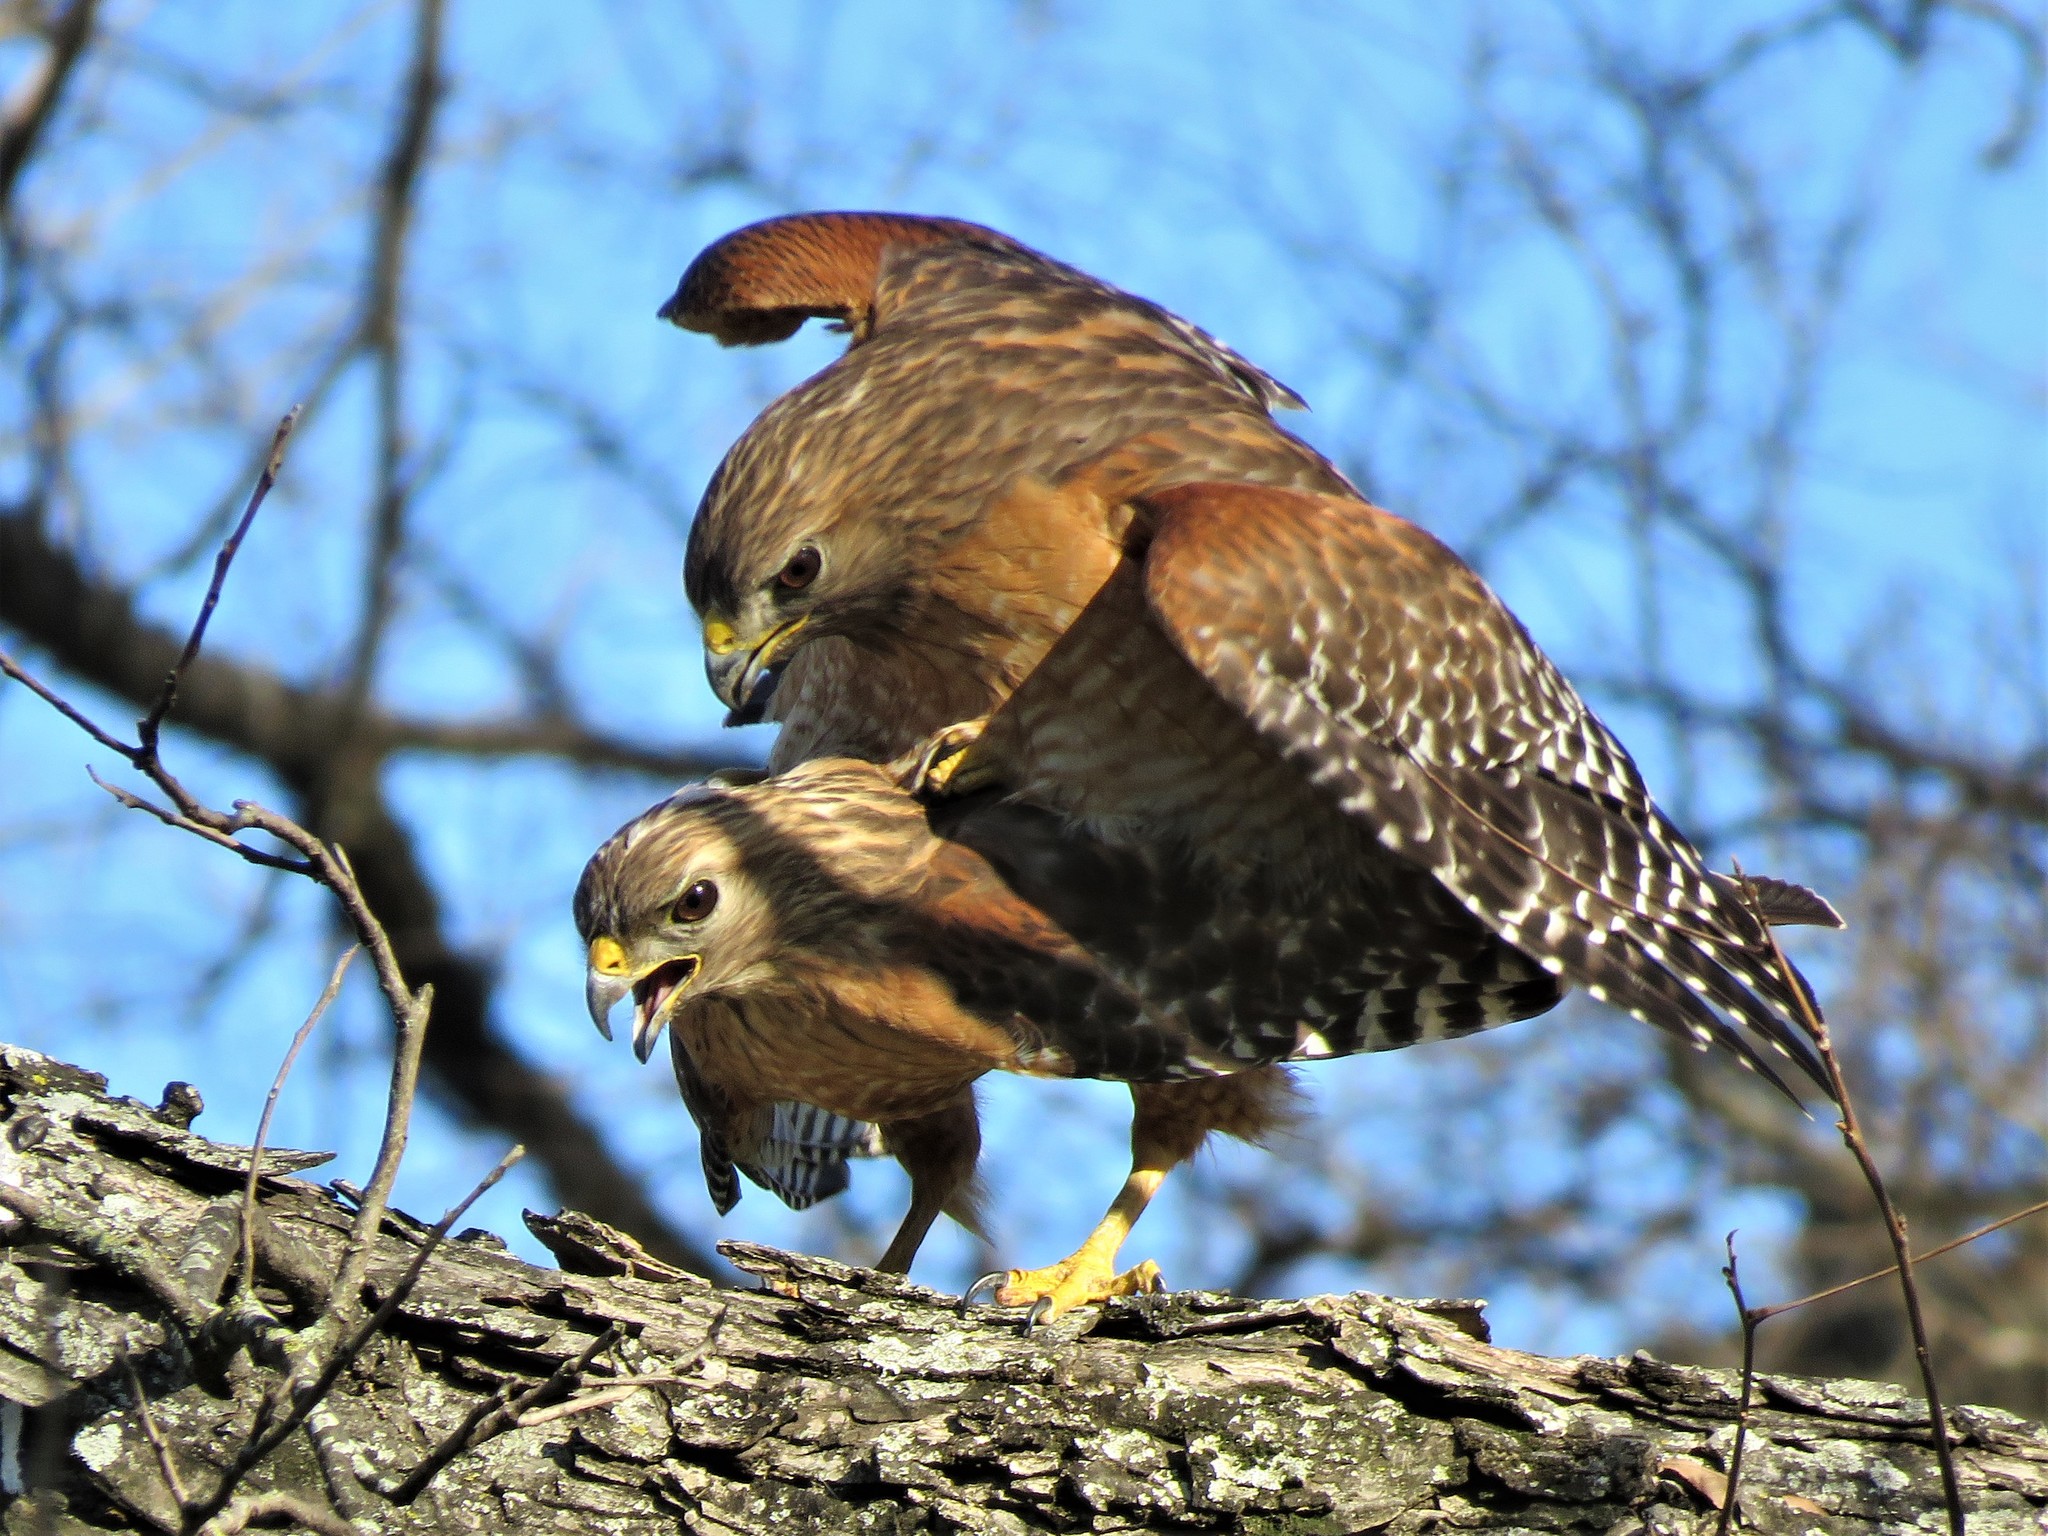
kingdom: Animalia
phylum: Chordata
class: Aves
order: Accipitriformes
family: Accipitridae
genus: Buteo
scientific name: Buteo lineatus
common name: Red-shouldered hawk
